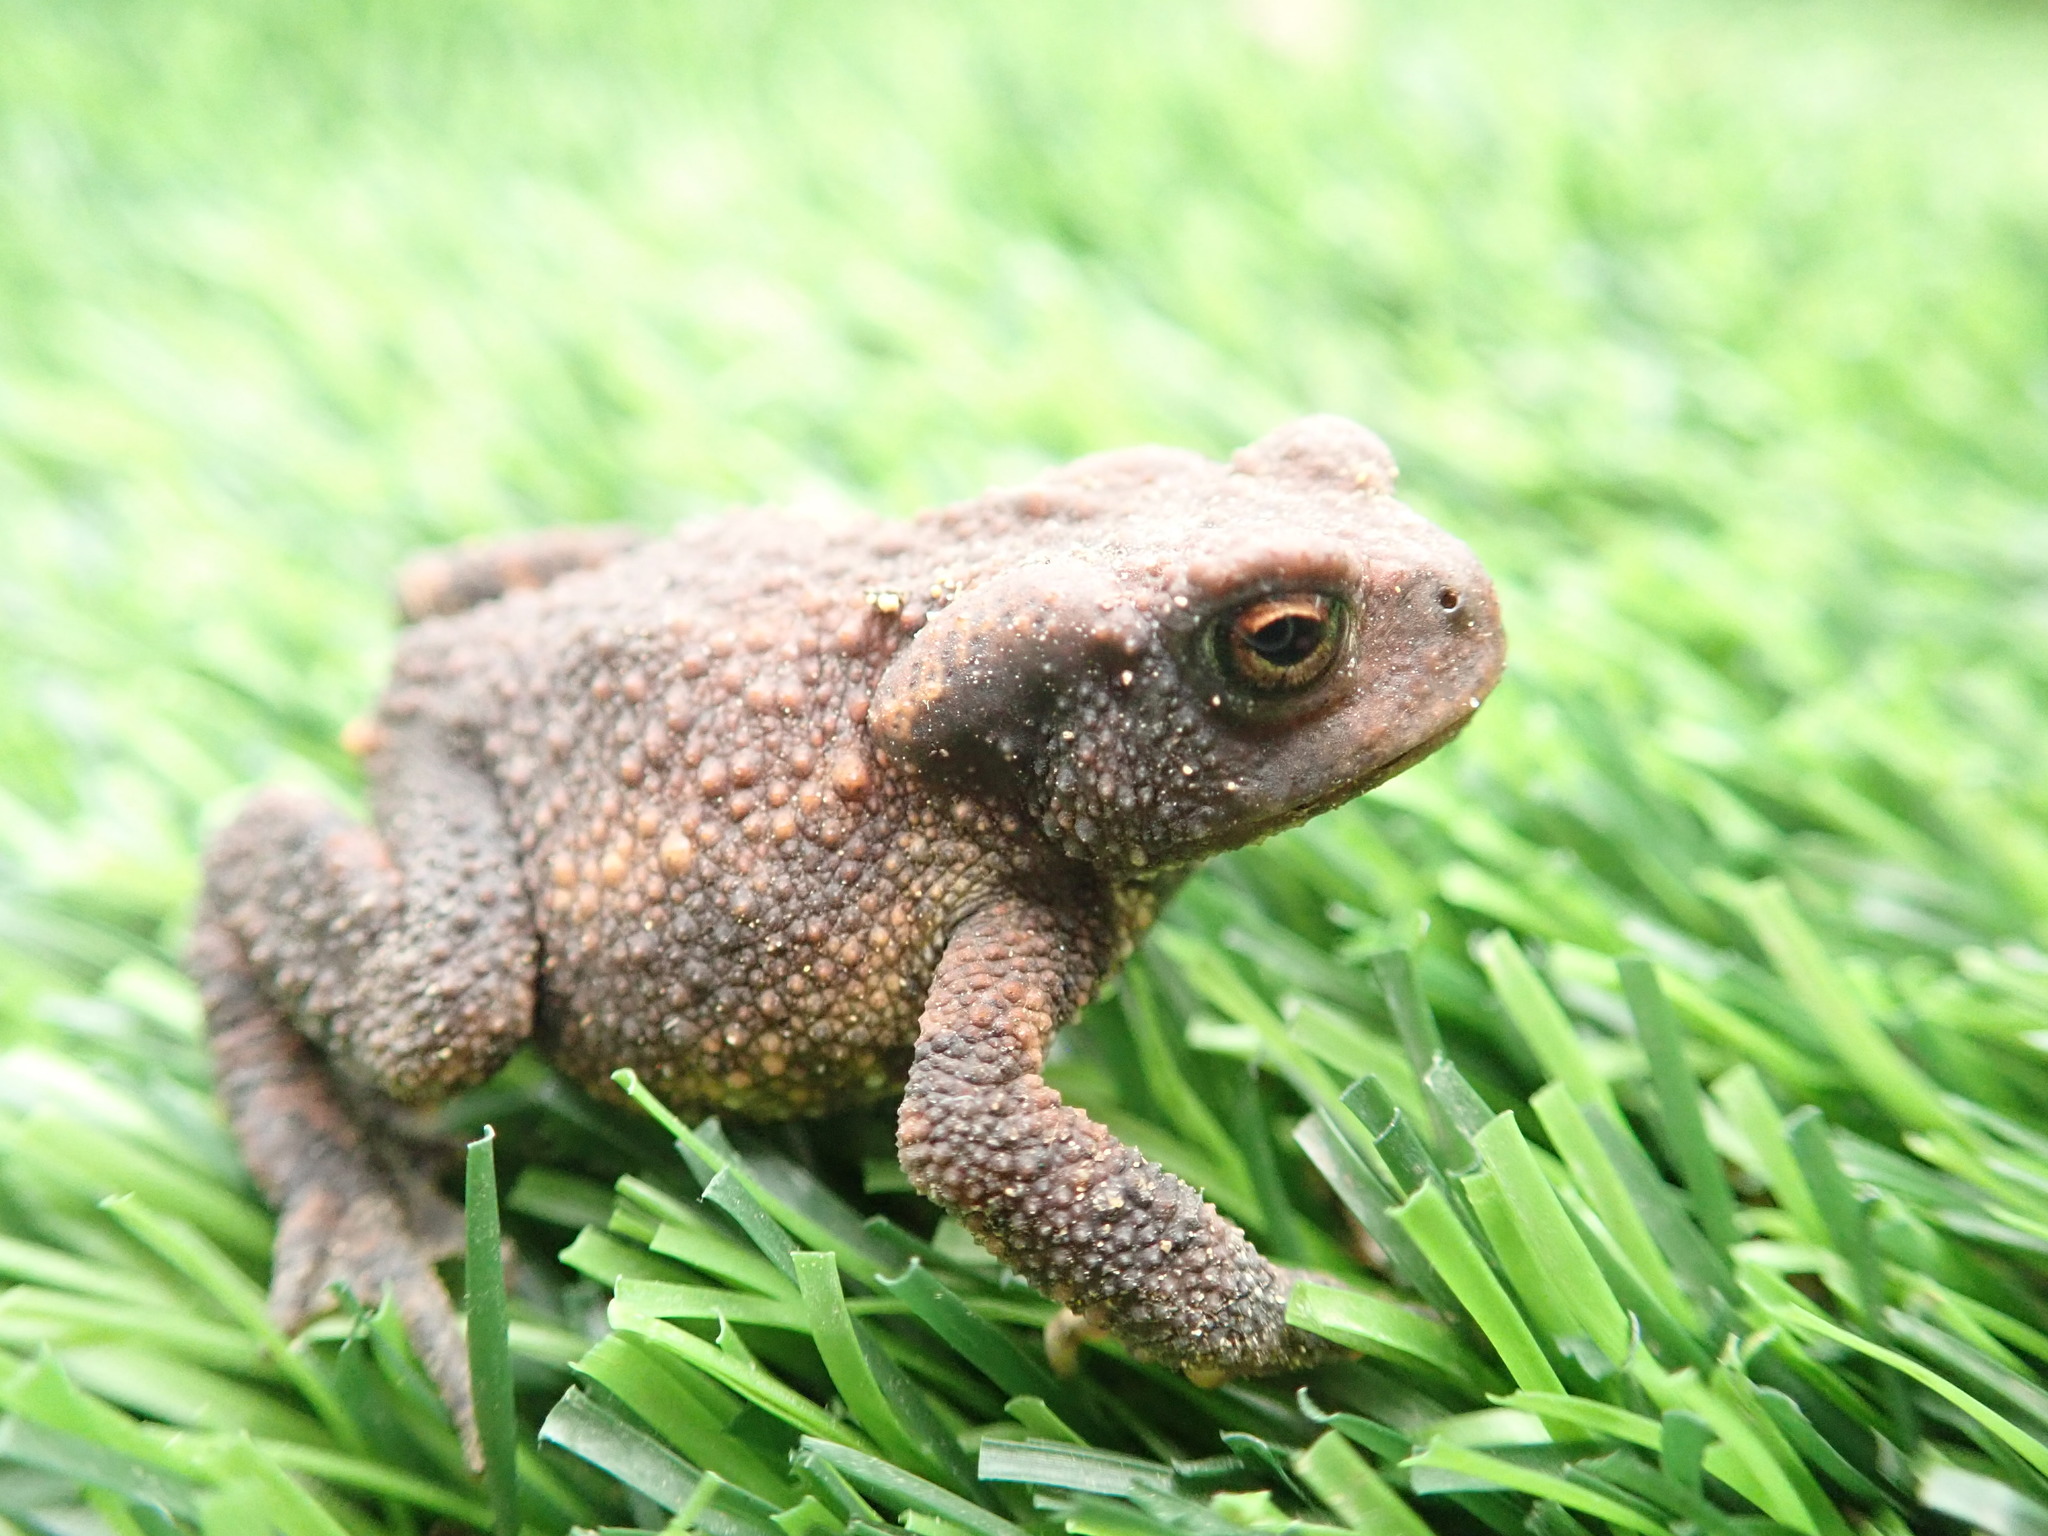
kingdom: Animalia
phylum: Chordata
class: Amphibia
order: Anura
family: Bufonidae
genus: Bufo
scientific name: Bufo spinosus
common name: Western common toad
